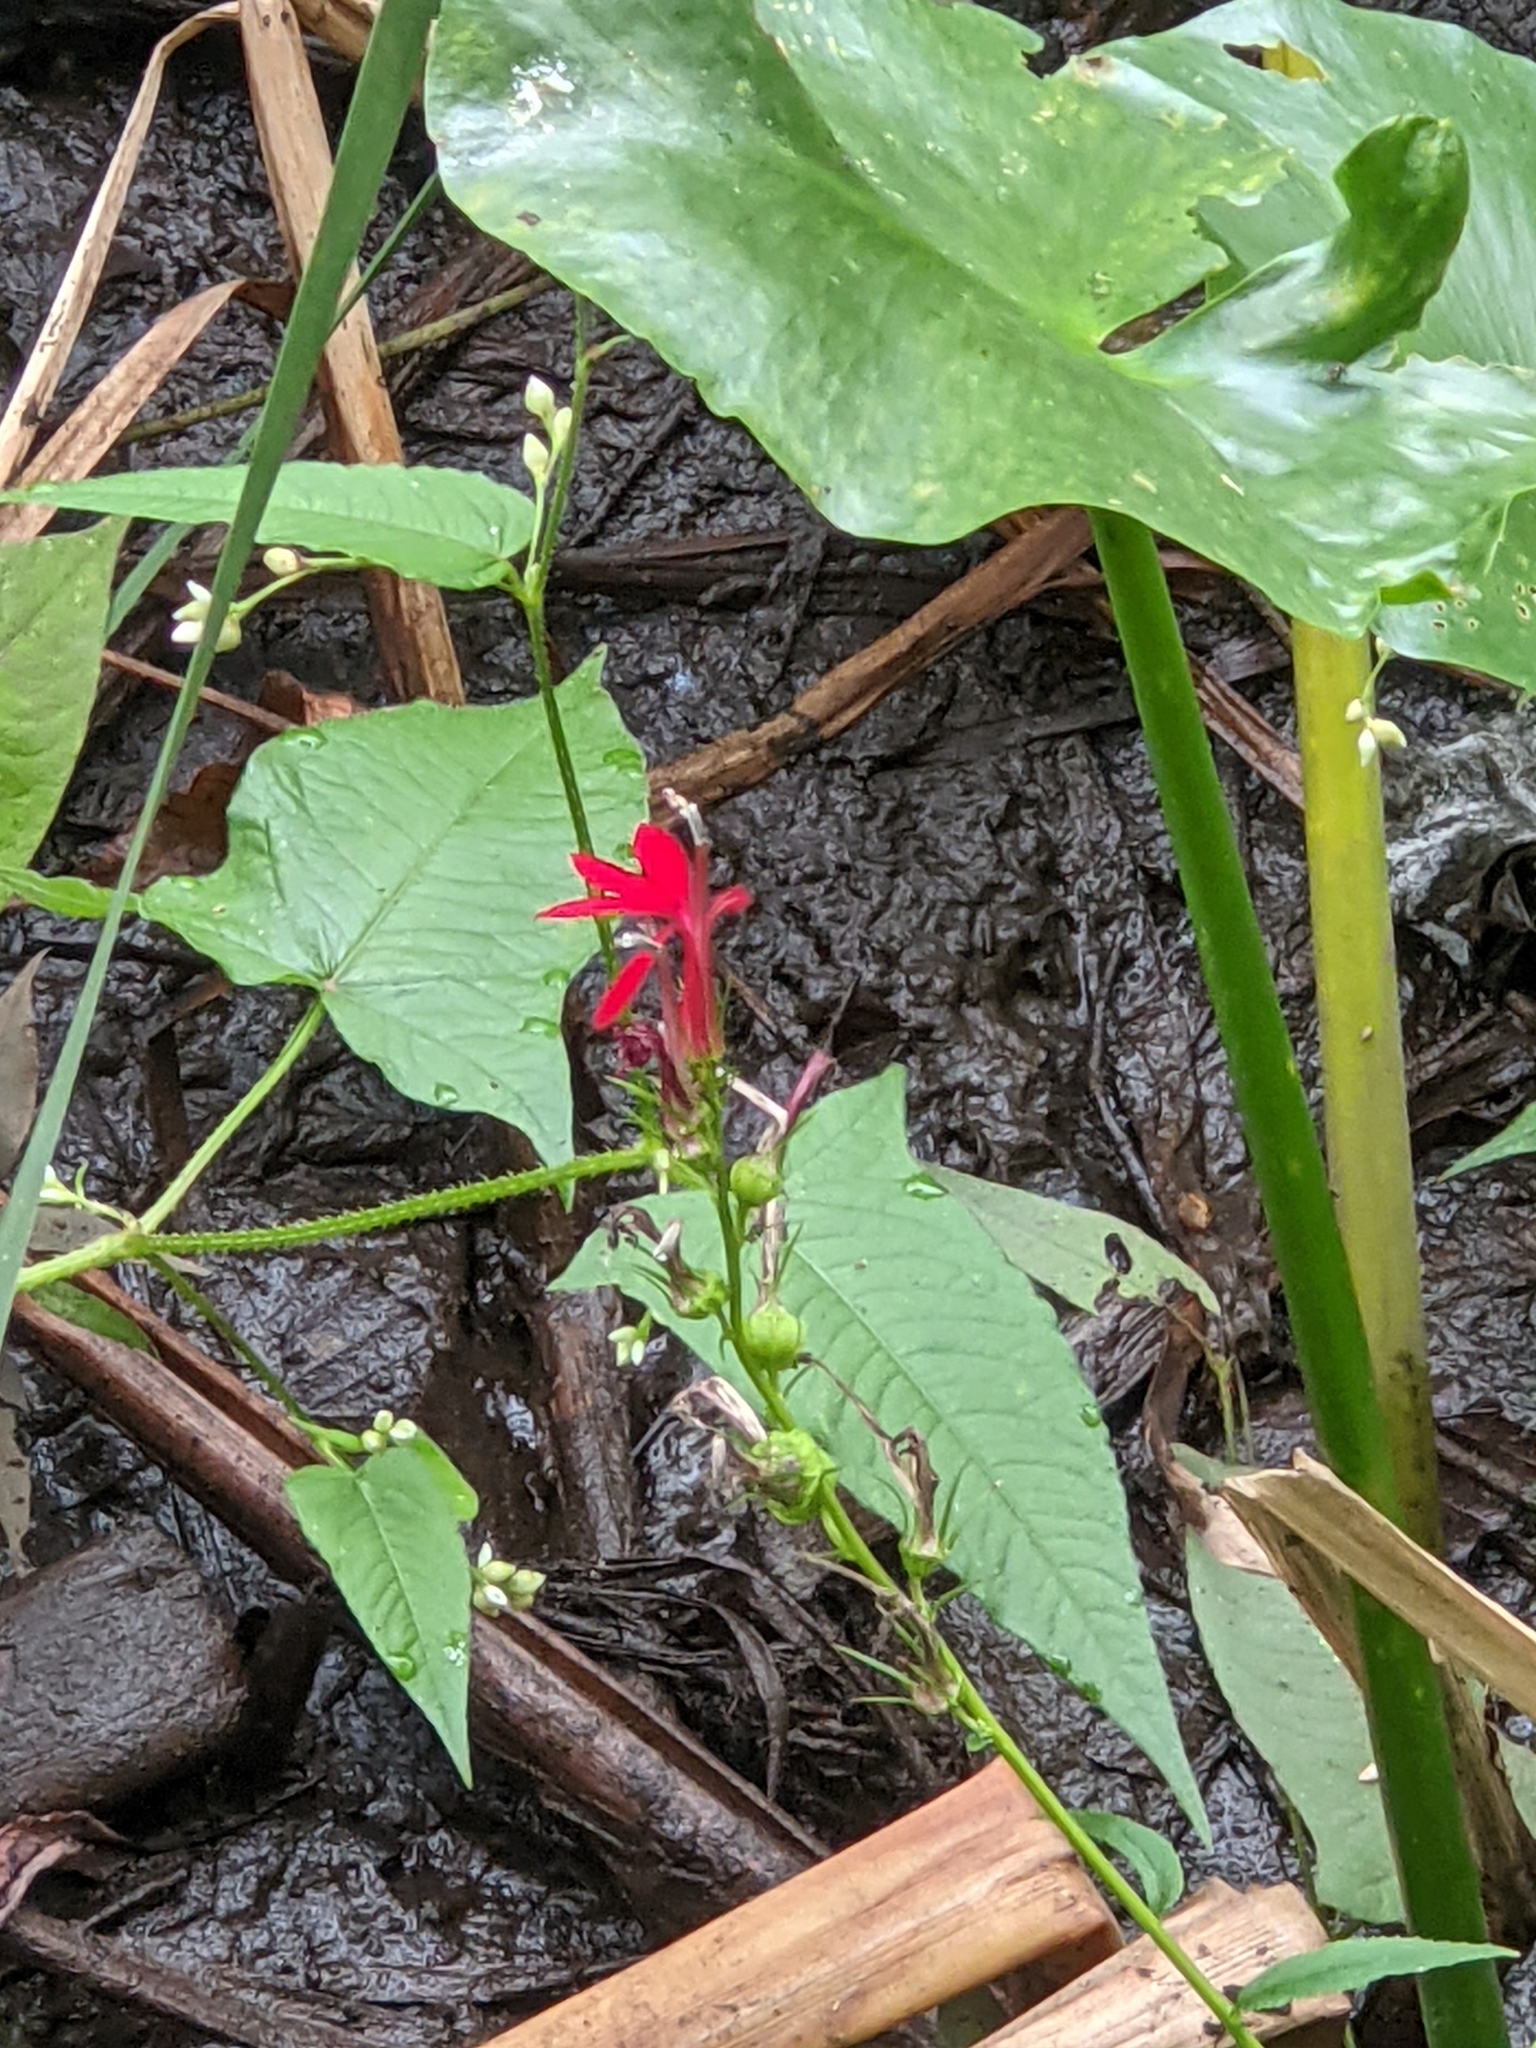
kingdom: Plantae
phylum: Tracheophyta
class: Magnoliopsida
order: Asterales
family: Campanulaceae
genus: Lobelia
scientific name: Lobelia cardinalis
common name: Cardinal flower
